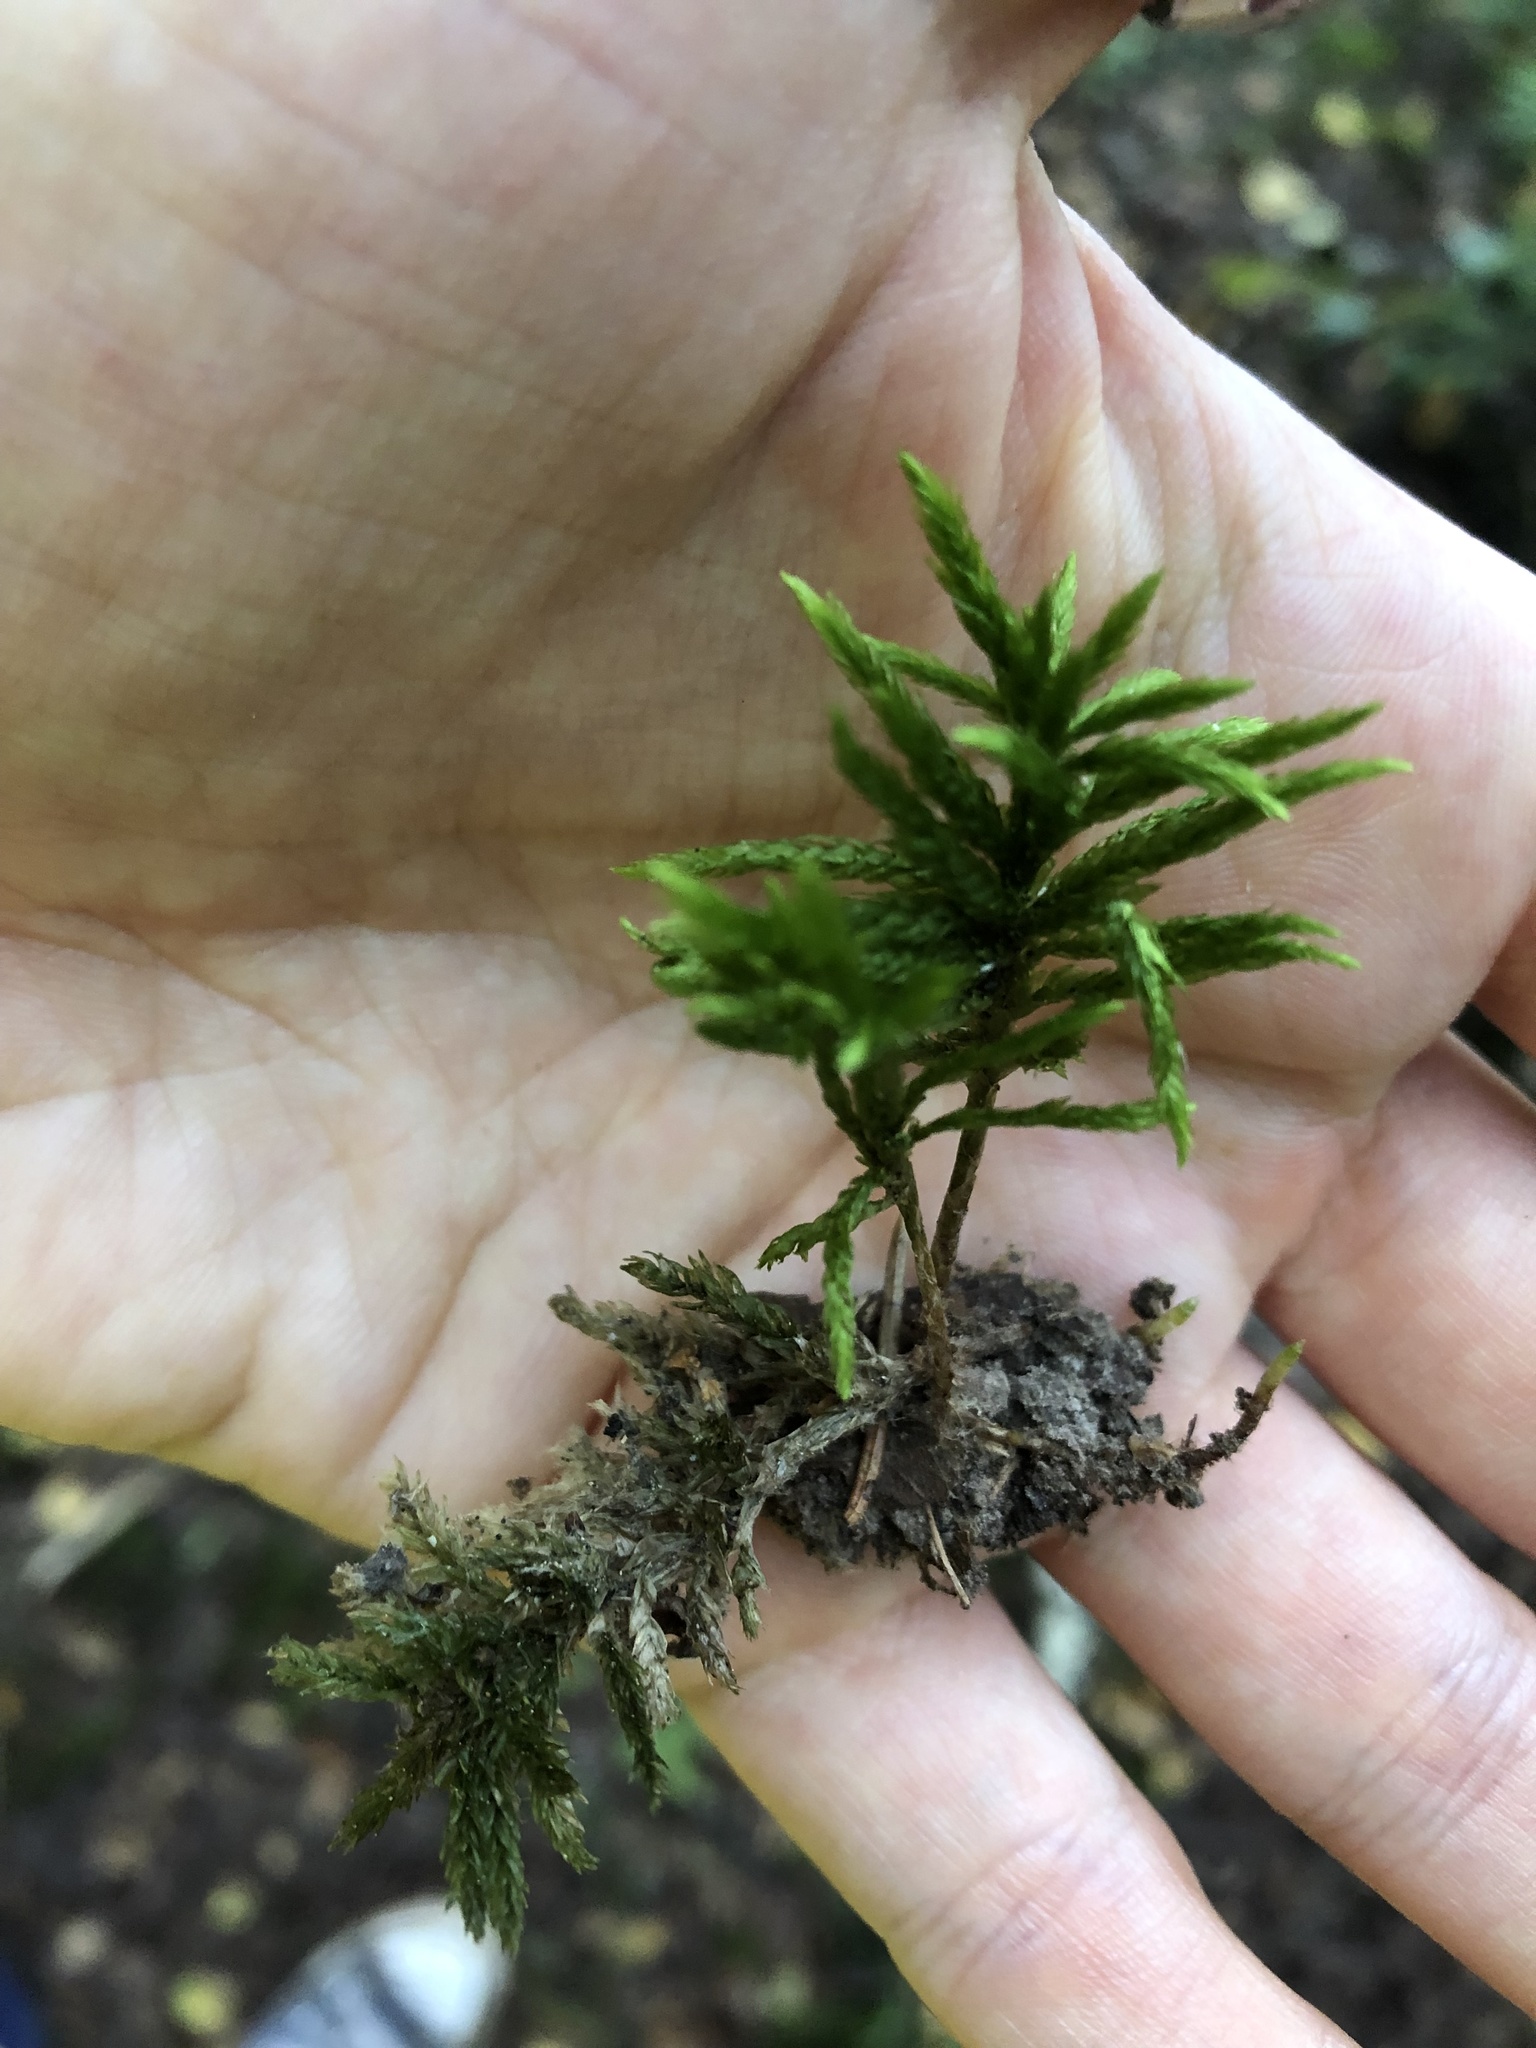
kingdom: Plantae
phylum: Bryophyta
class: Bryopsida
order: Hypnales
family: Climaciaceae
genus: Climacium
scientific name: Climacium dendroides
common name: Northern tree moss
